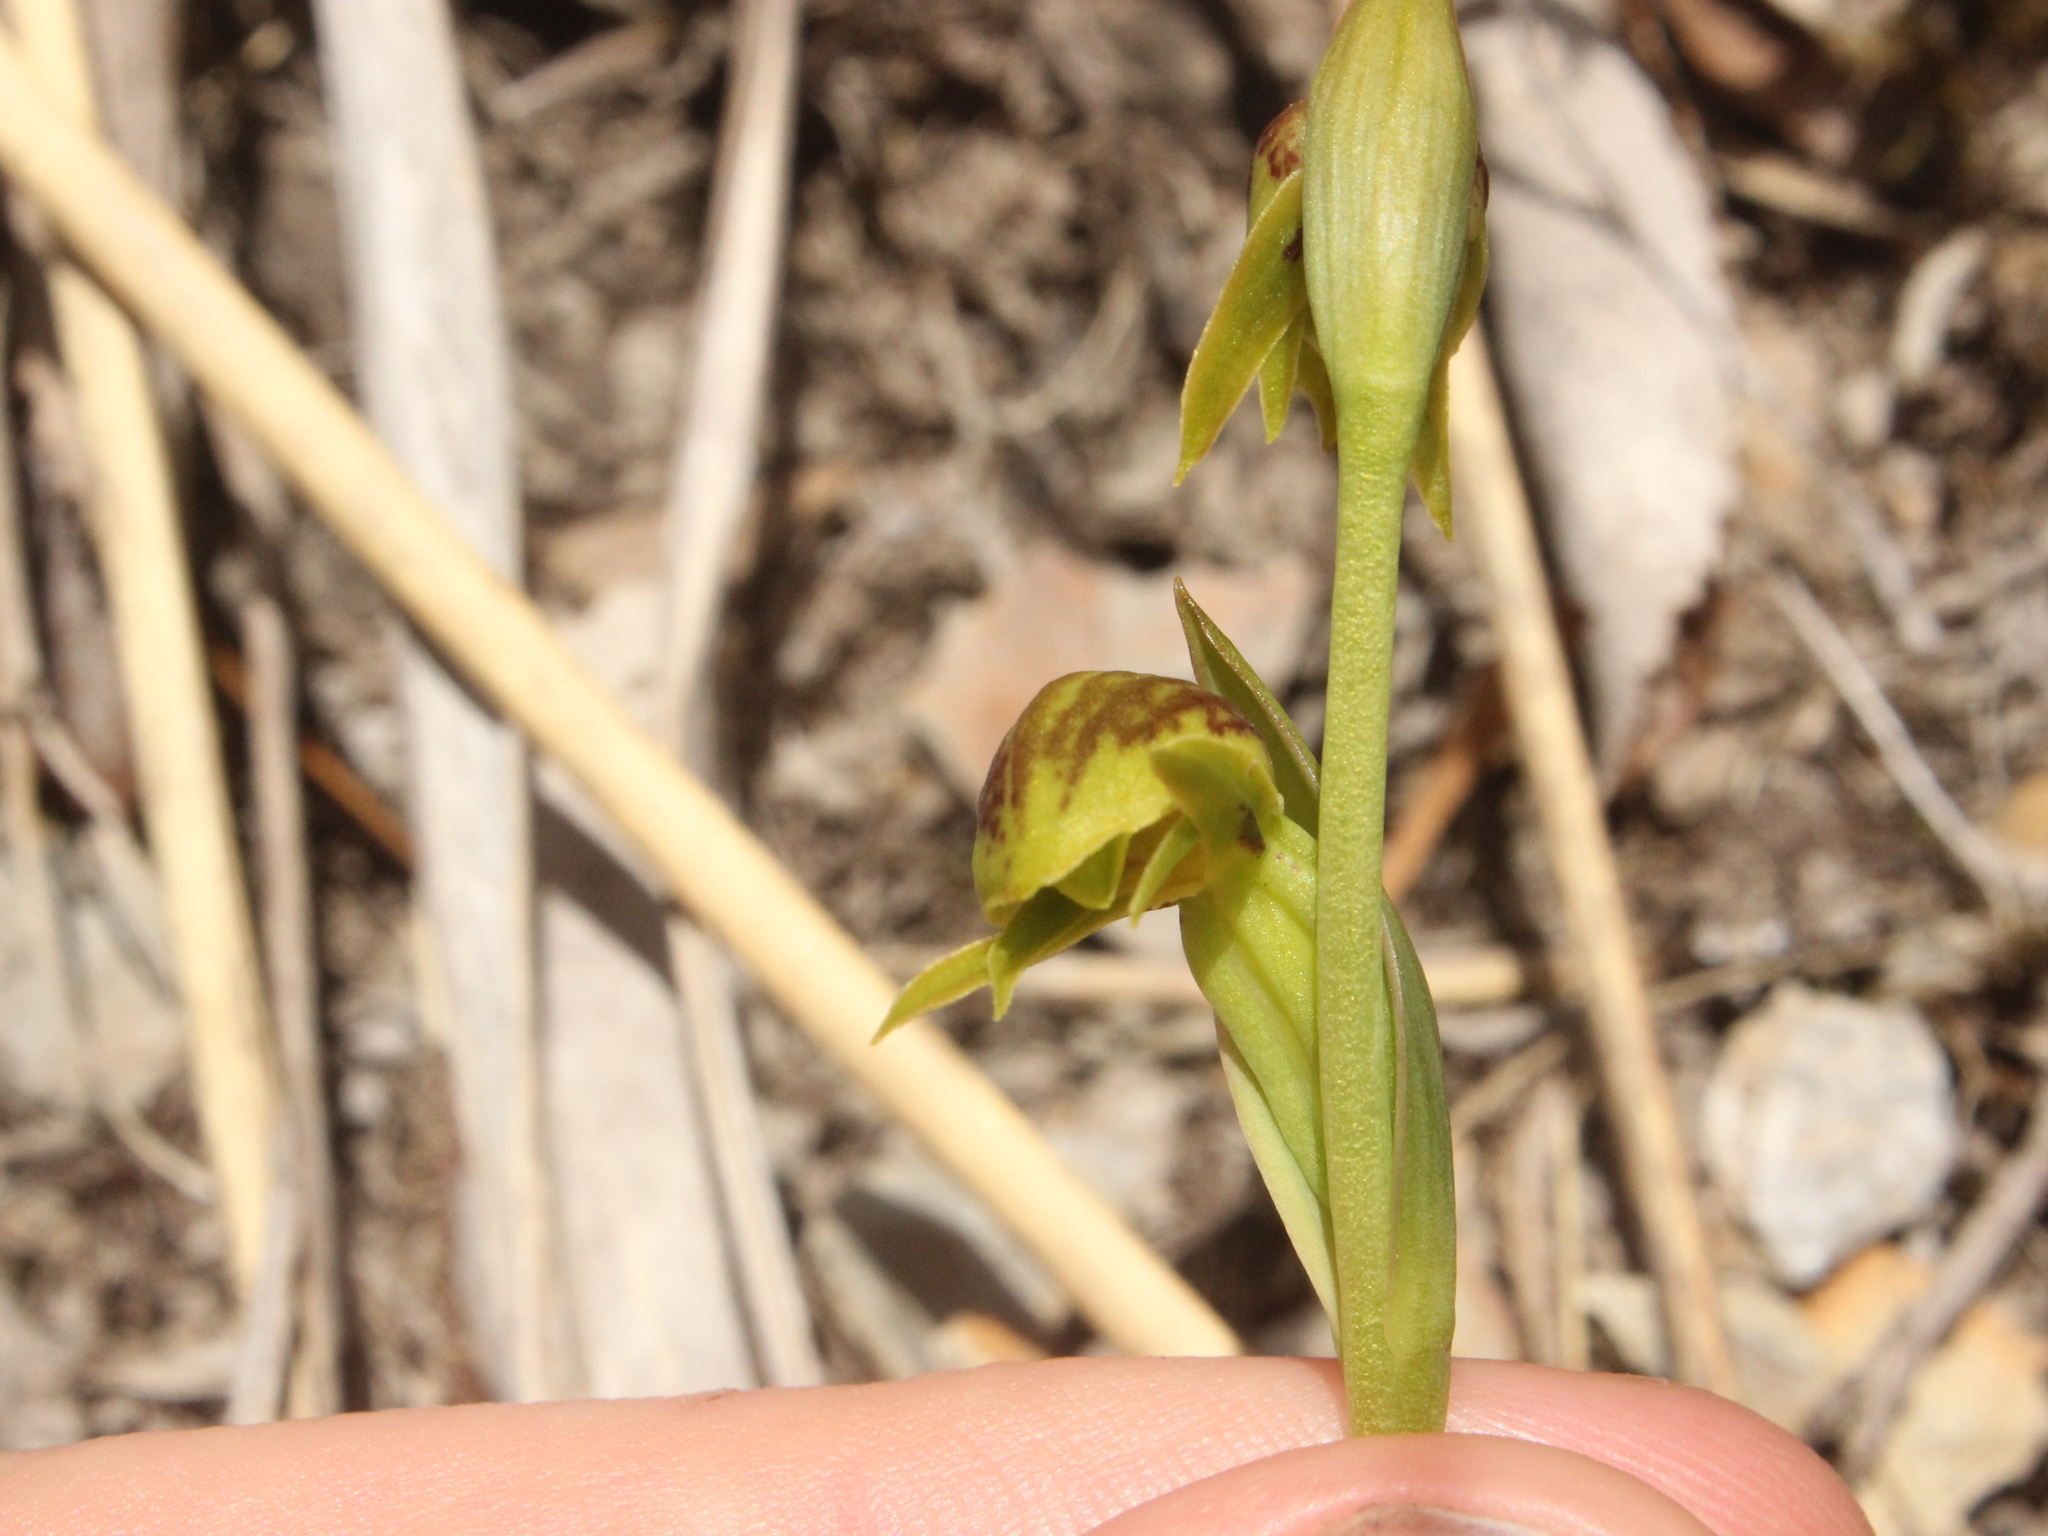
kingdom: Plantae
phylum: Tracheophyta
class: Liliopsida
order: Asparagales
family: Orchidaceae
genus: Waireia
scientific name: Waireia stenopetala
